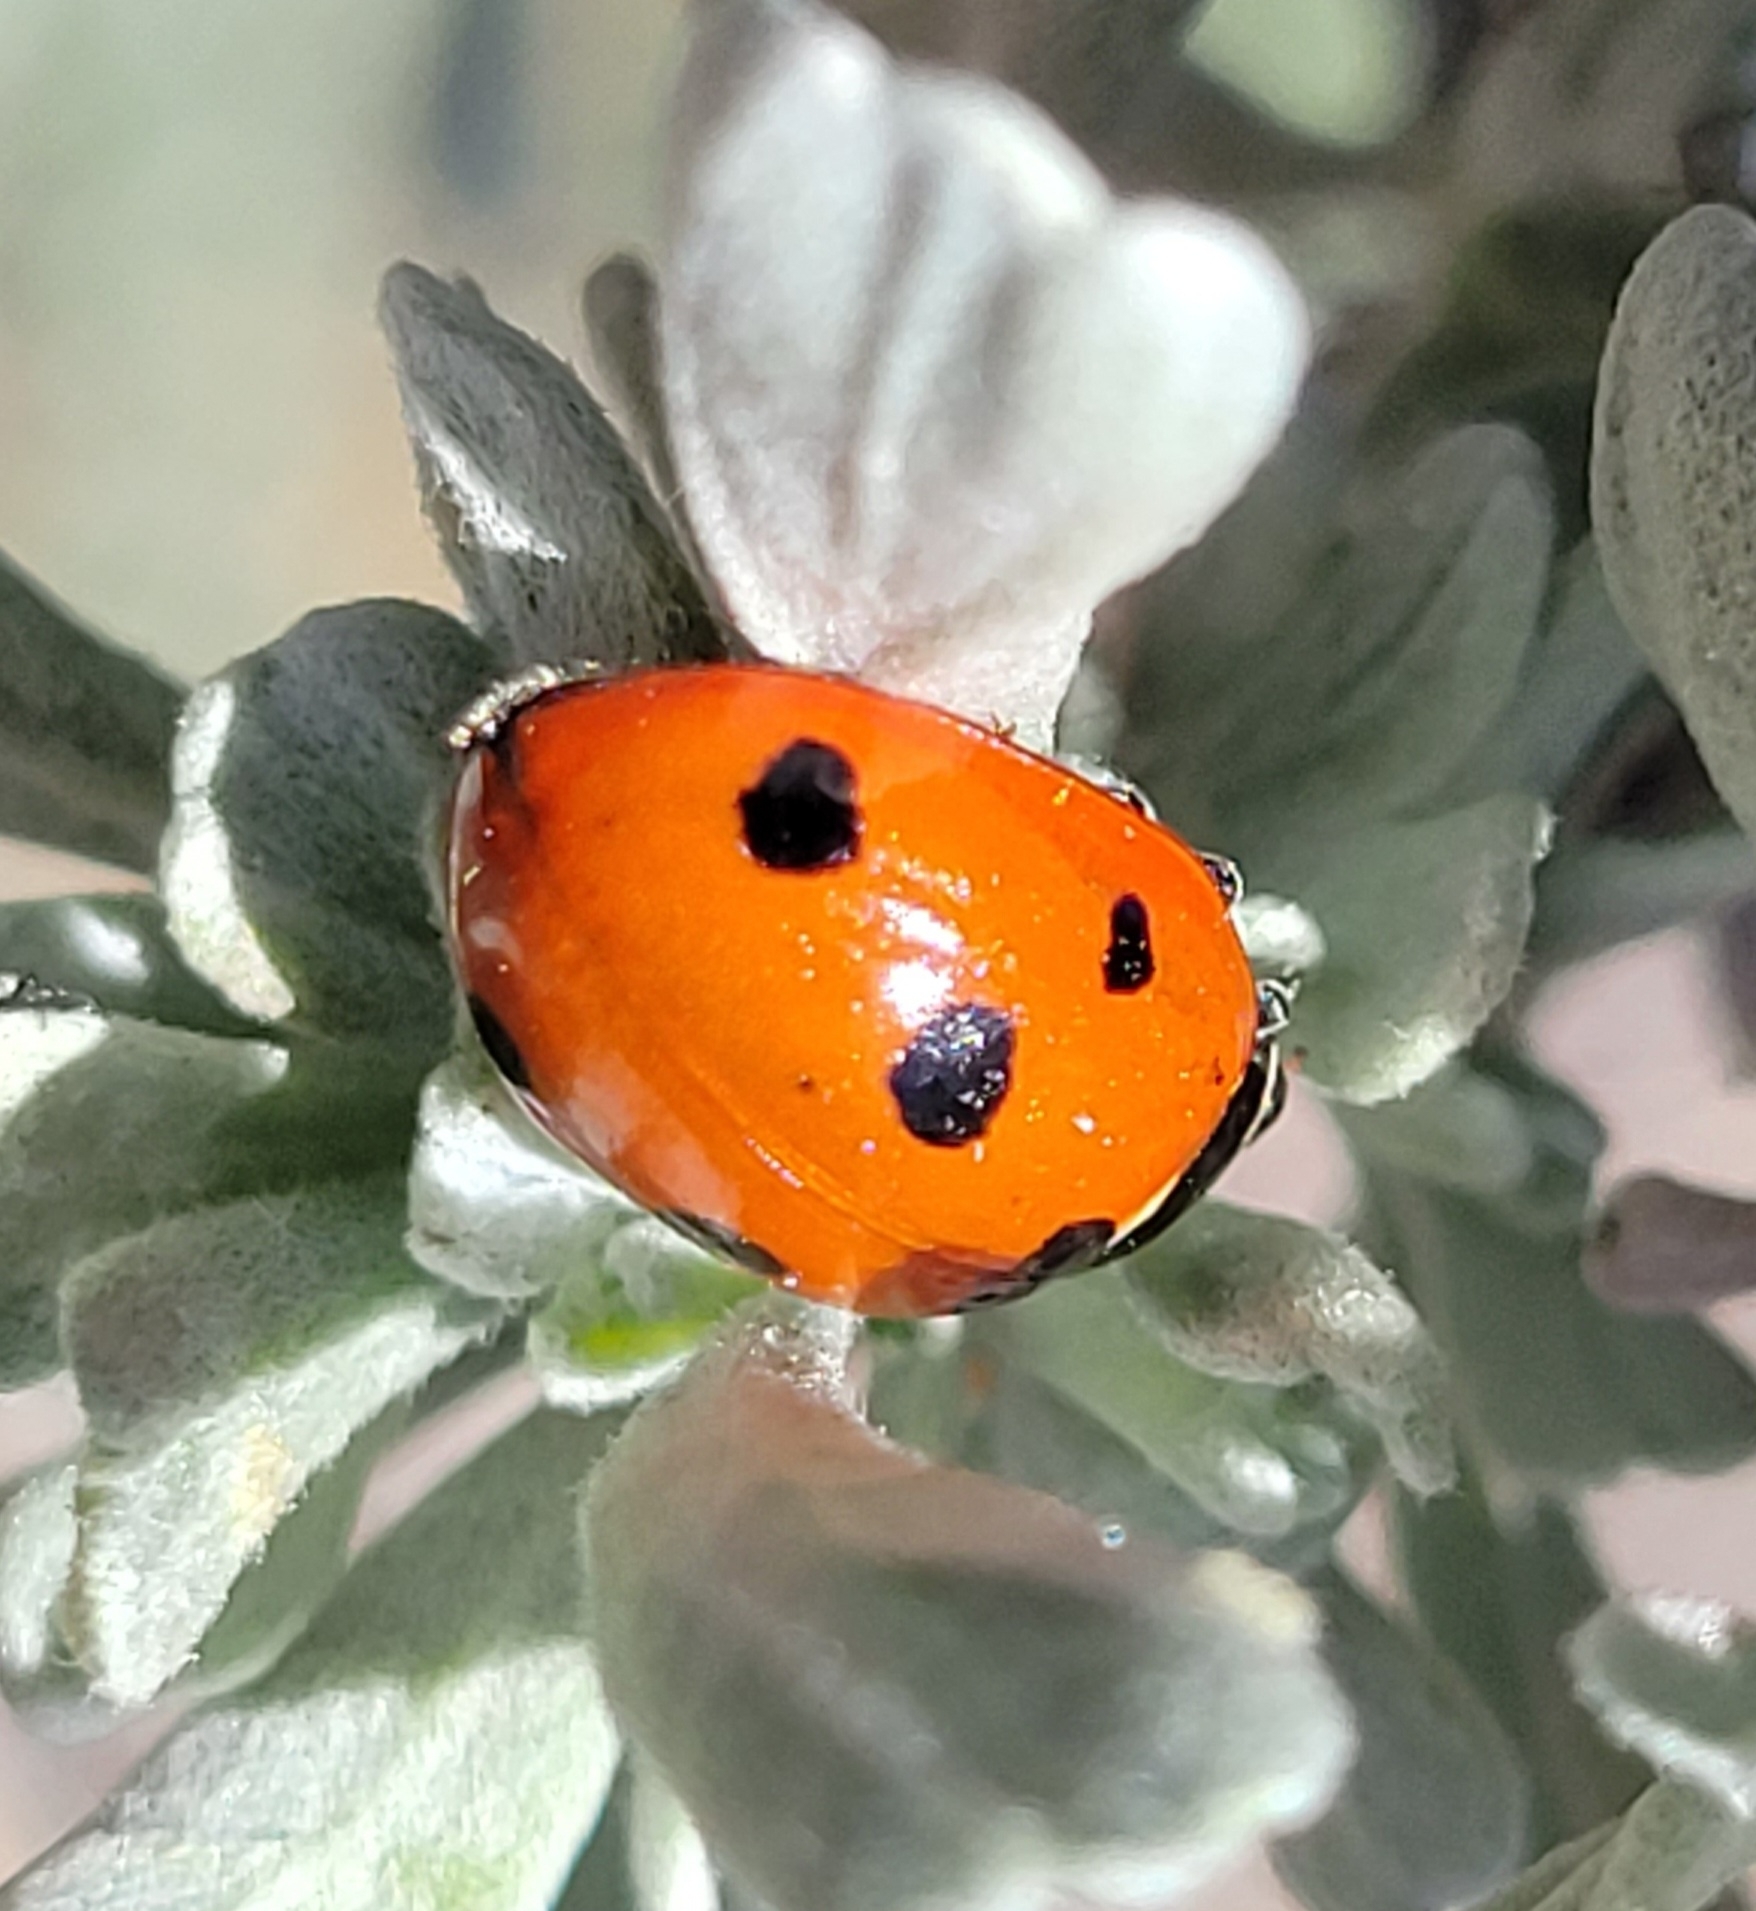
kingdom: Animalia
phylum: Arthropoda
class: Insecta
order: Coleoptera
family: Coccinellidae
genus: Coccinella
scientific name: Coccinella septempunctata
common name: Sevenspotted lady beetle
